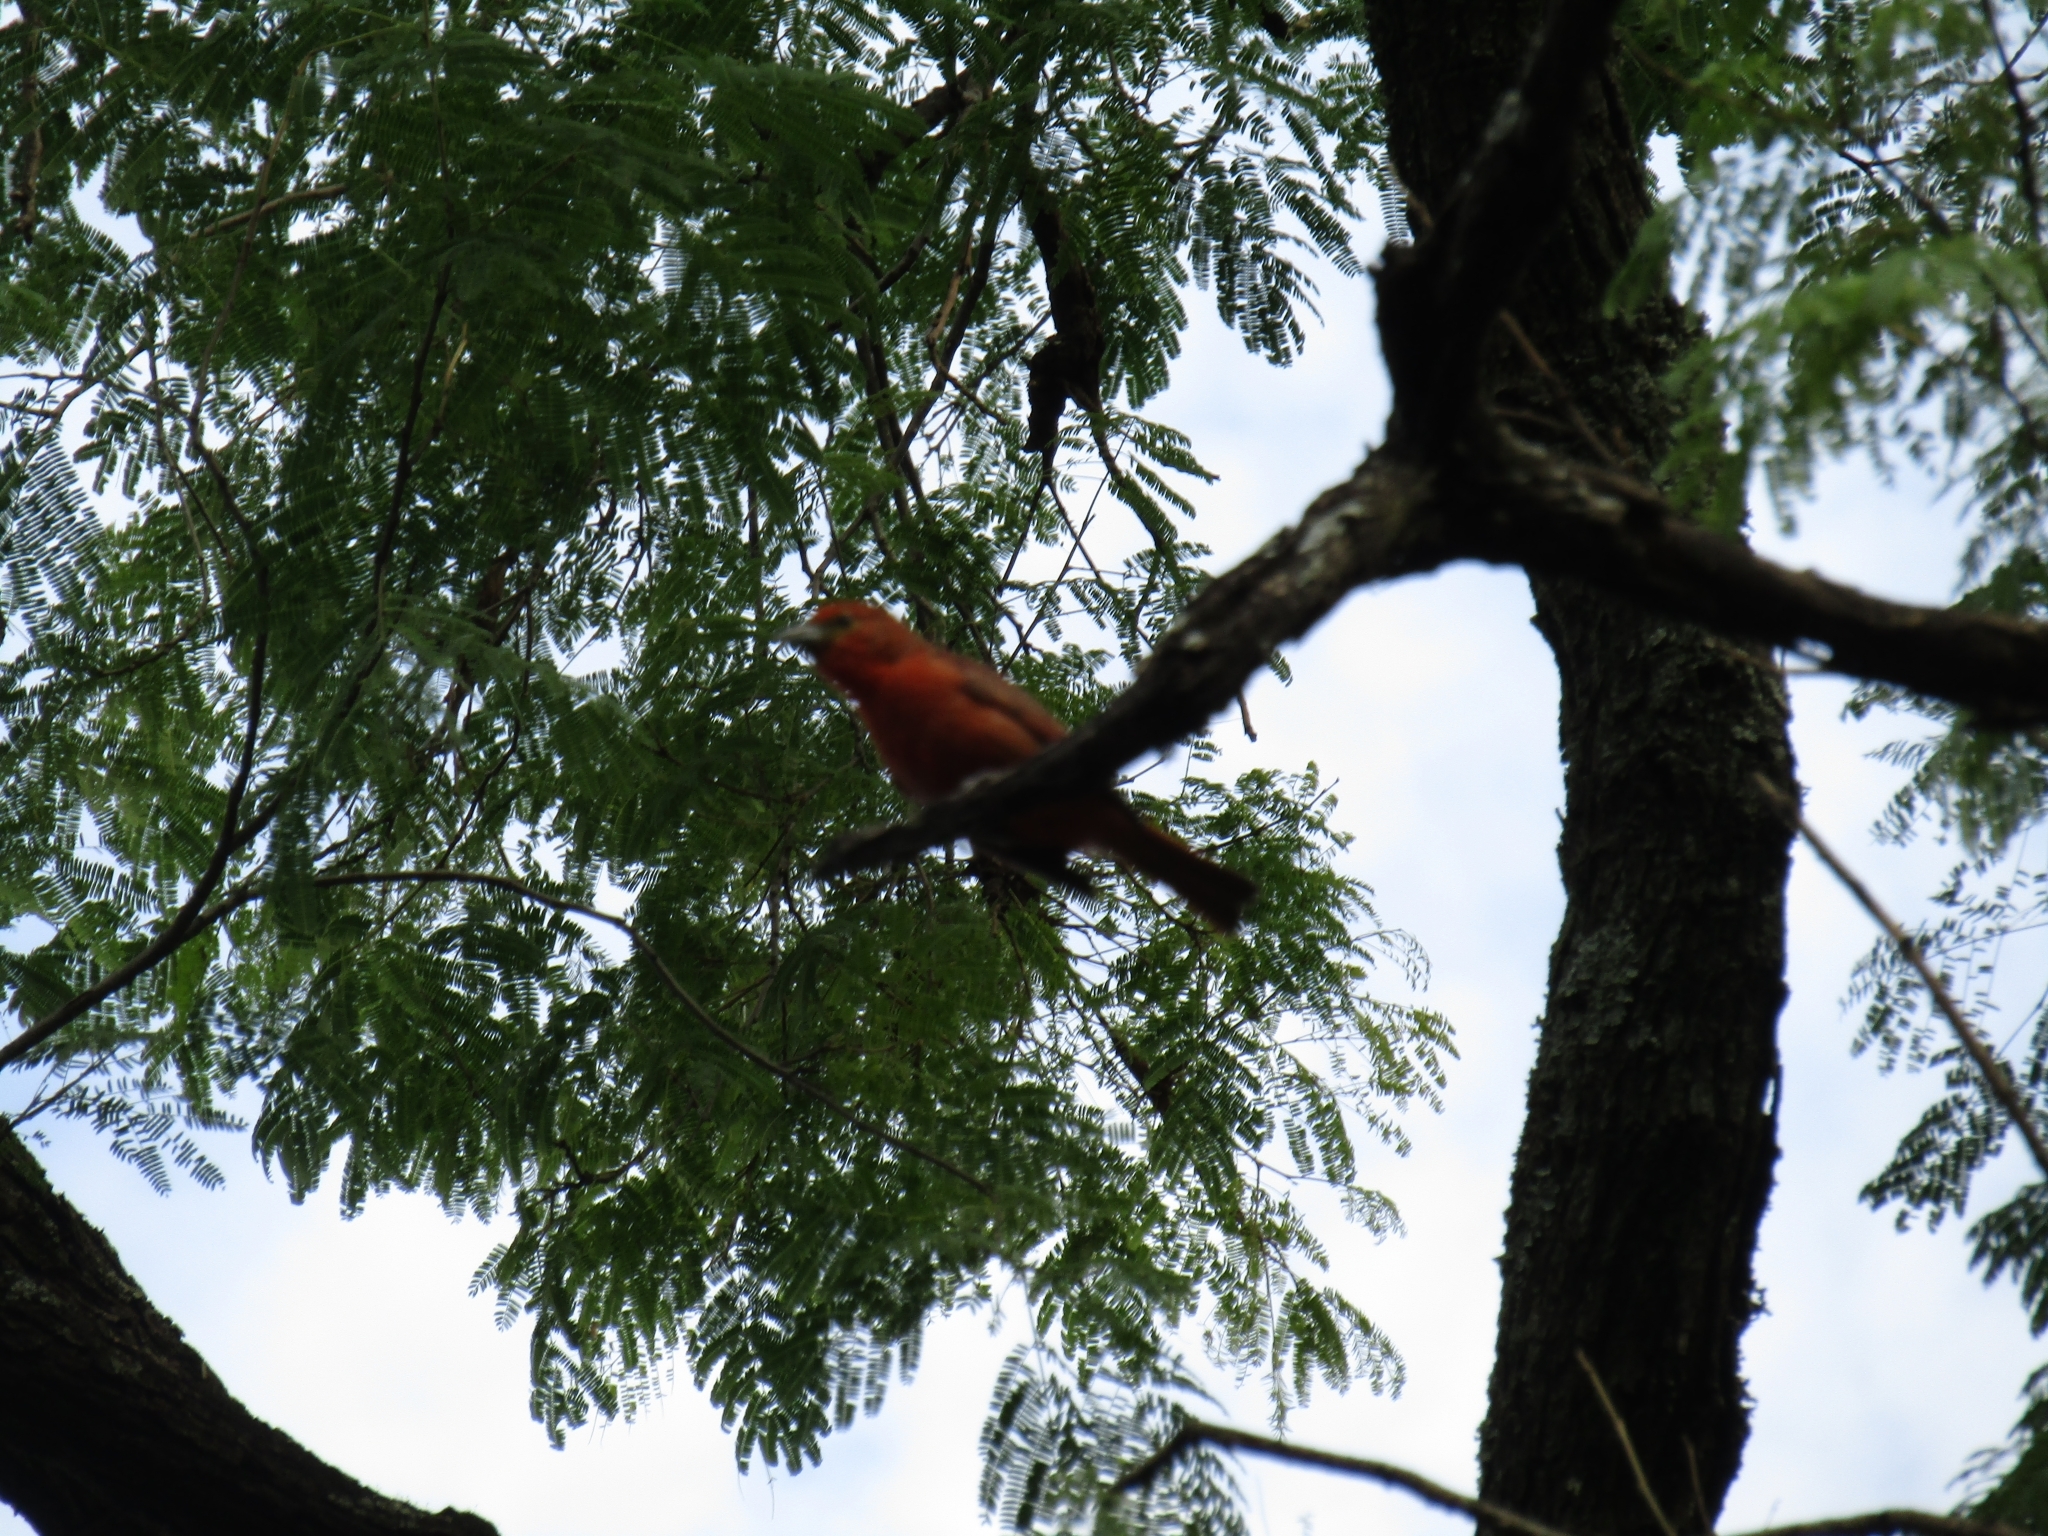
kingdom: Animalia
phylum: Chordata
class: Aves
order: Passeriformes
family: Cardinalidae
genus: Piranga
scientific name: Piranga flava
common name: Red tanager
